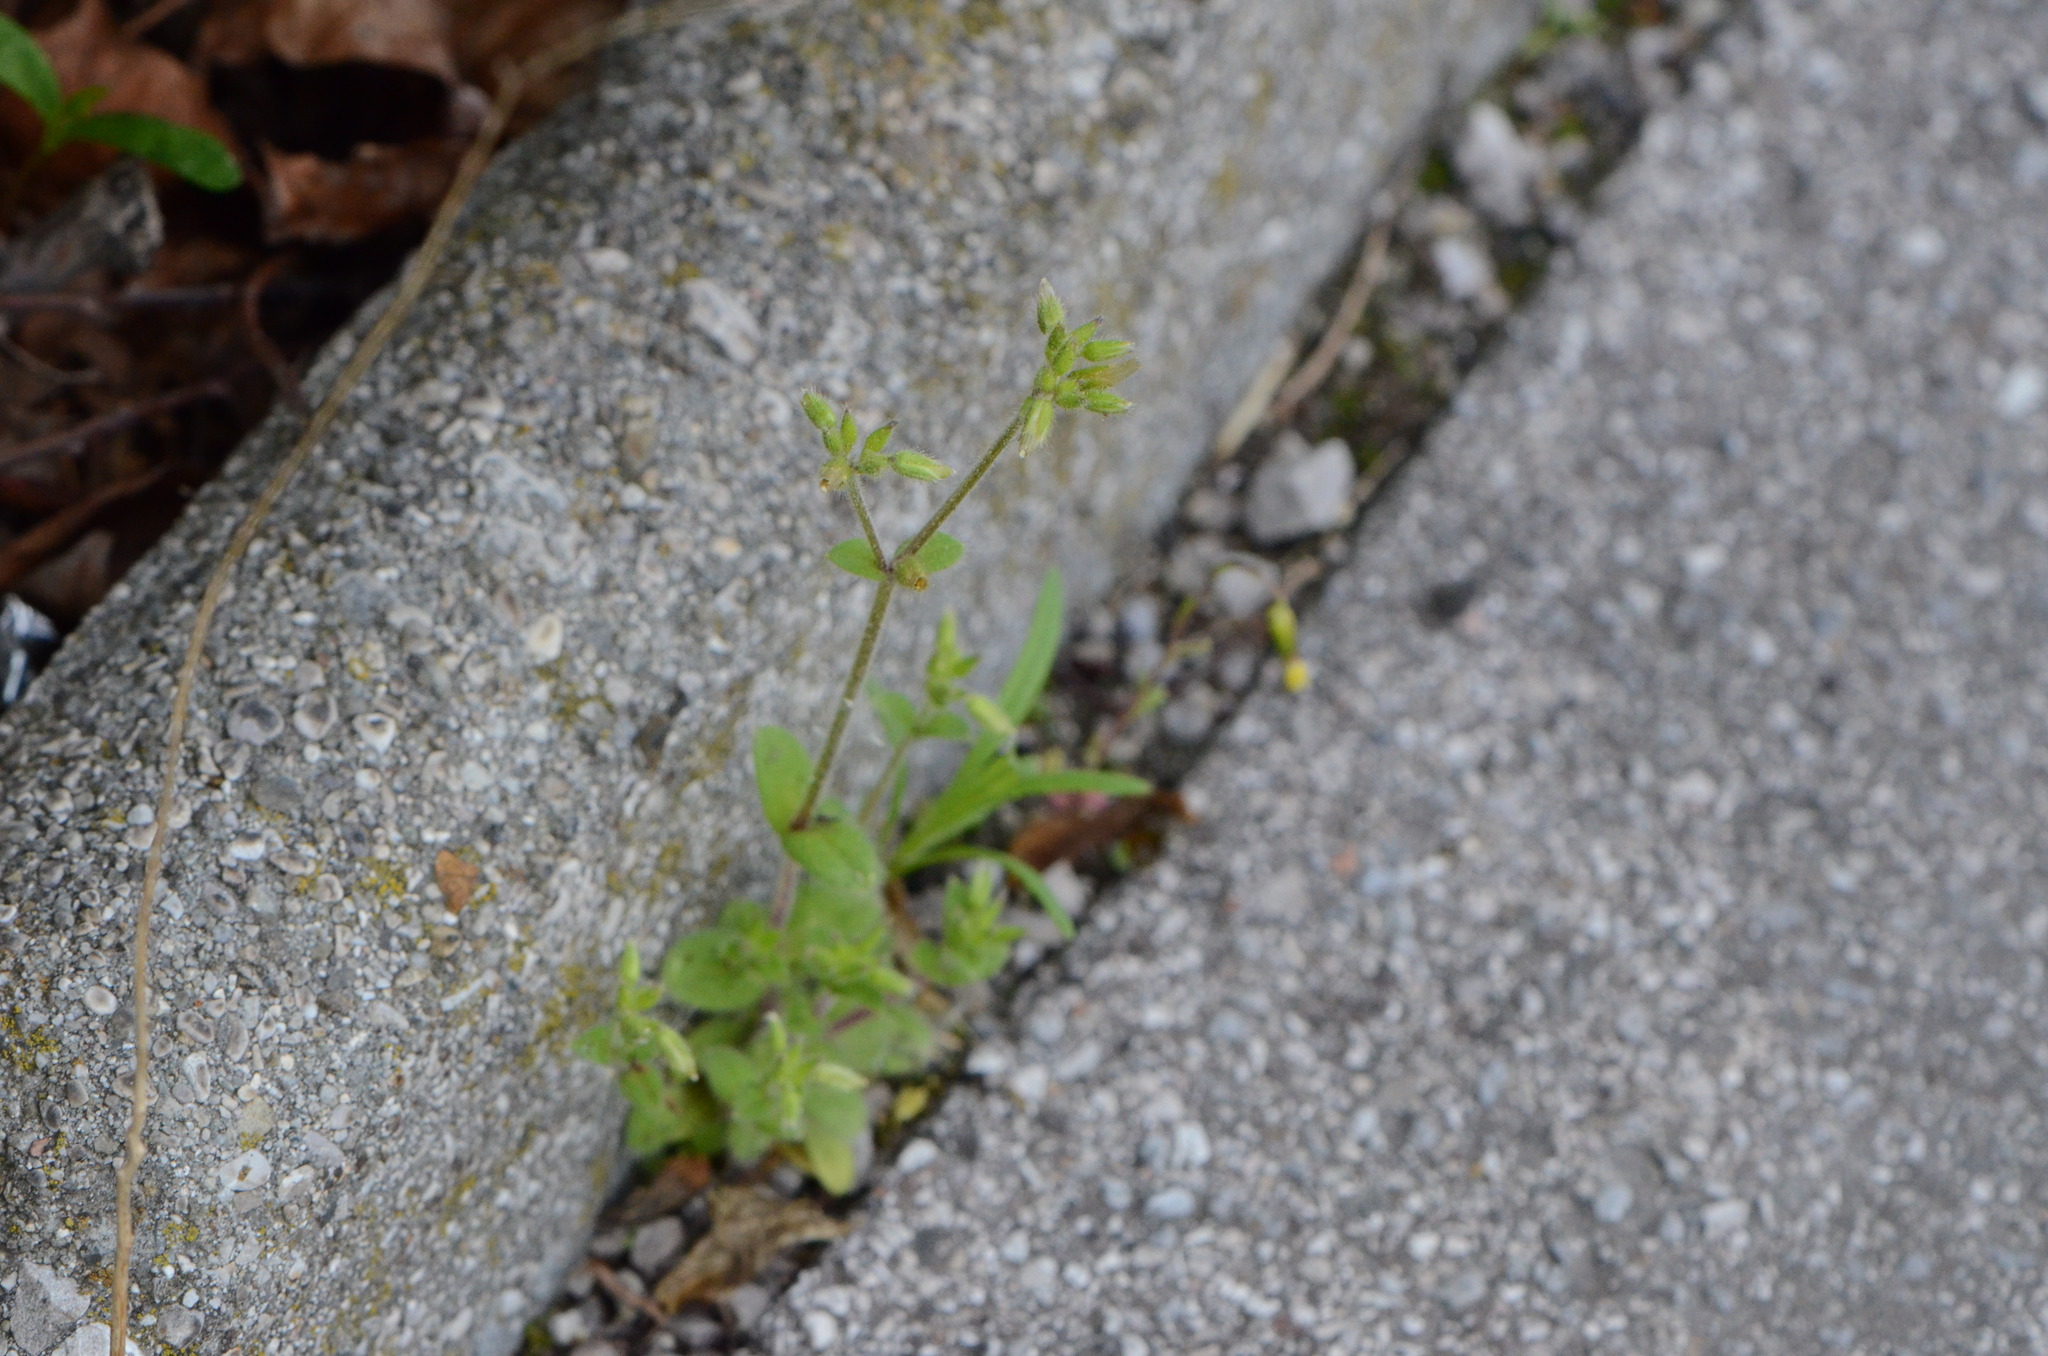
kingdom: Plantae
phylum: Tracheophyta
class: Magnoliopsida
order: Caryophyllales
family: Caryophyllaceae
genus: Cerastium
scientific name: Cerastium glomeratum
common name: Sticky chickweed
